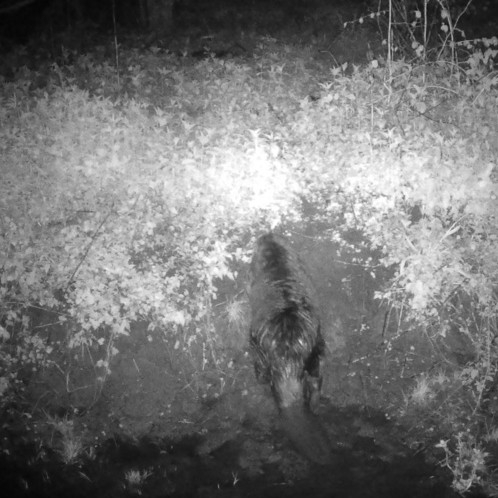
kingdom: Animalia
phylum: Chordata
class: Mammalia
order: Rodentia
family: Castoridae
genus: Castor
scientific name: Castor fiber
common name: Eurasian beaver
